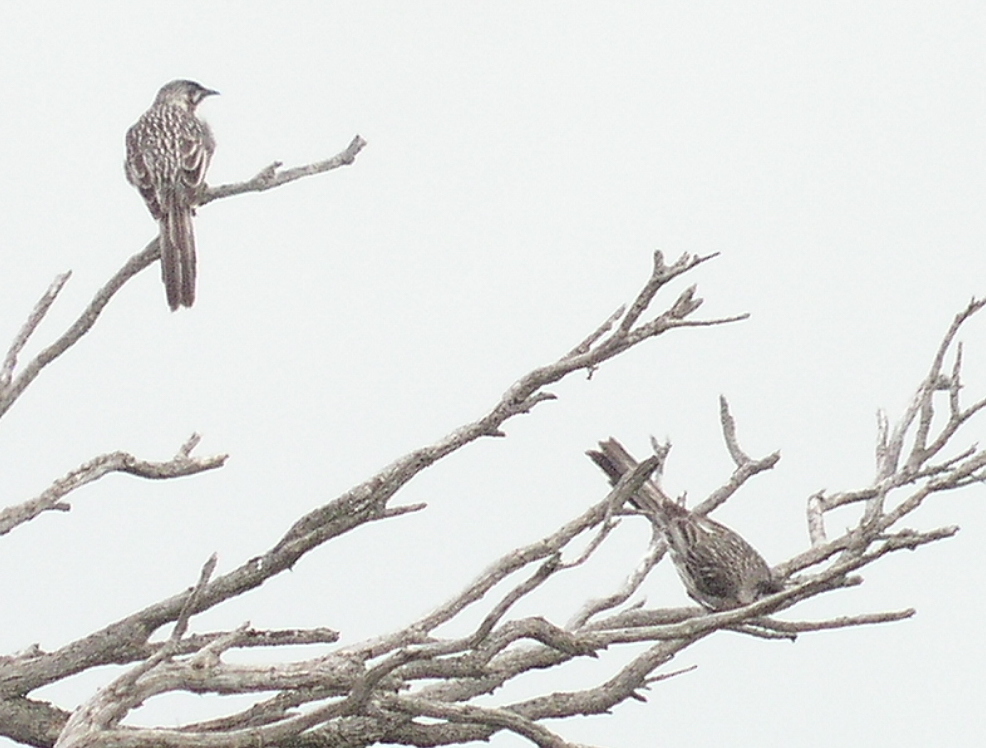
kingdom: Animalia
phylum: Chordata
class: Aves
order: Passeriformes
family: Meliphagidae
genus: Anthochaera
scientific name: Anthochaera carunculata
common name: Red wattlebird
